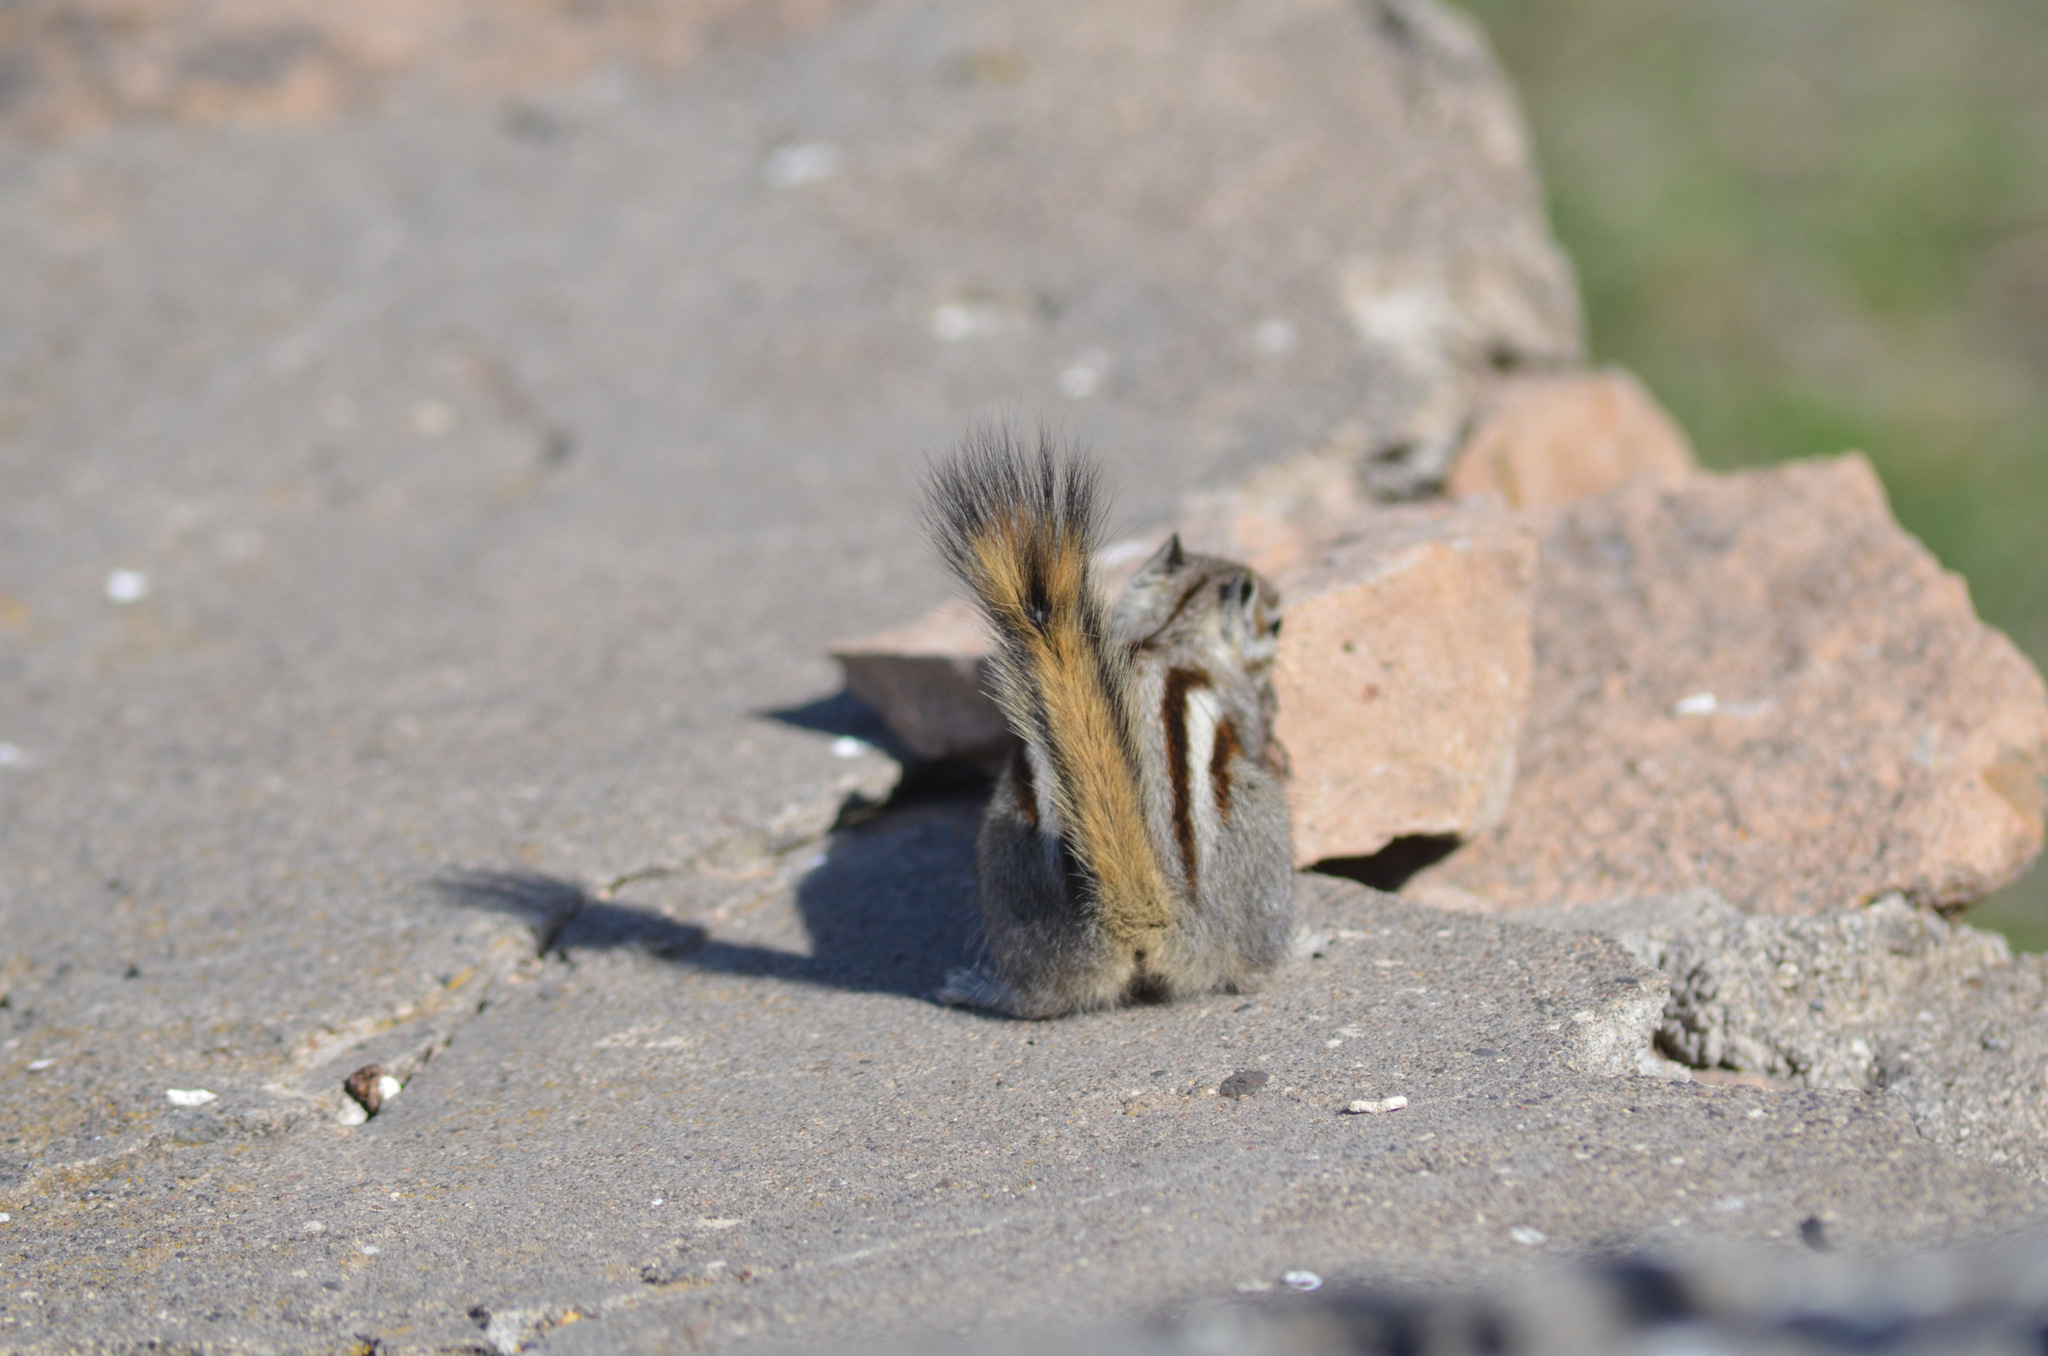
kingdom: Animalia
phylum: Chordata
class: Mammalia
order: Rodentia
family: Sciuridae
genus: Tamias
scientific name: Tamias minimus
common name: Least chipmunk
